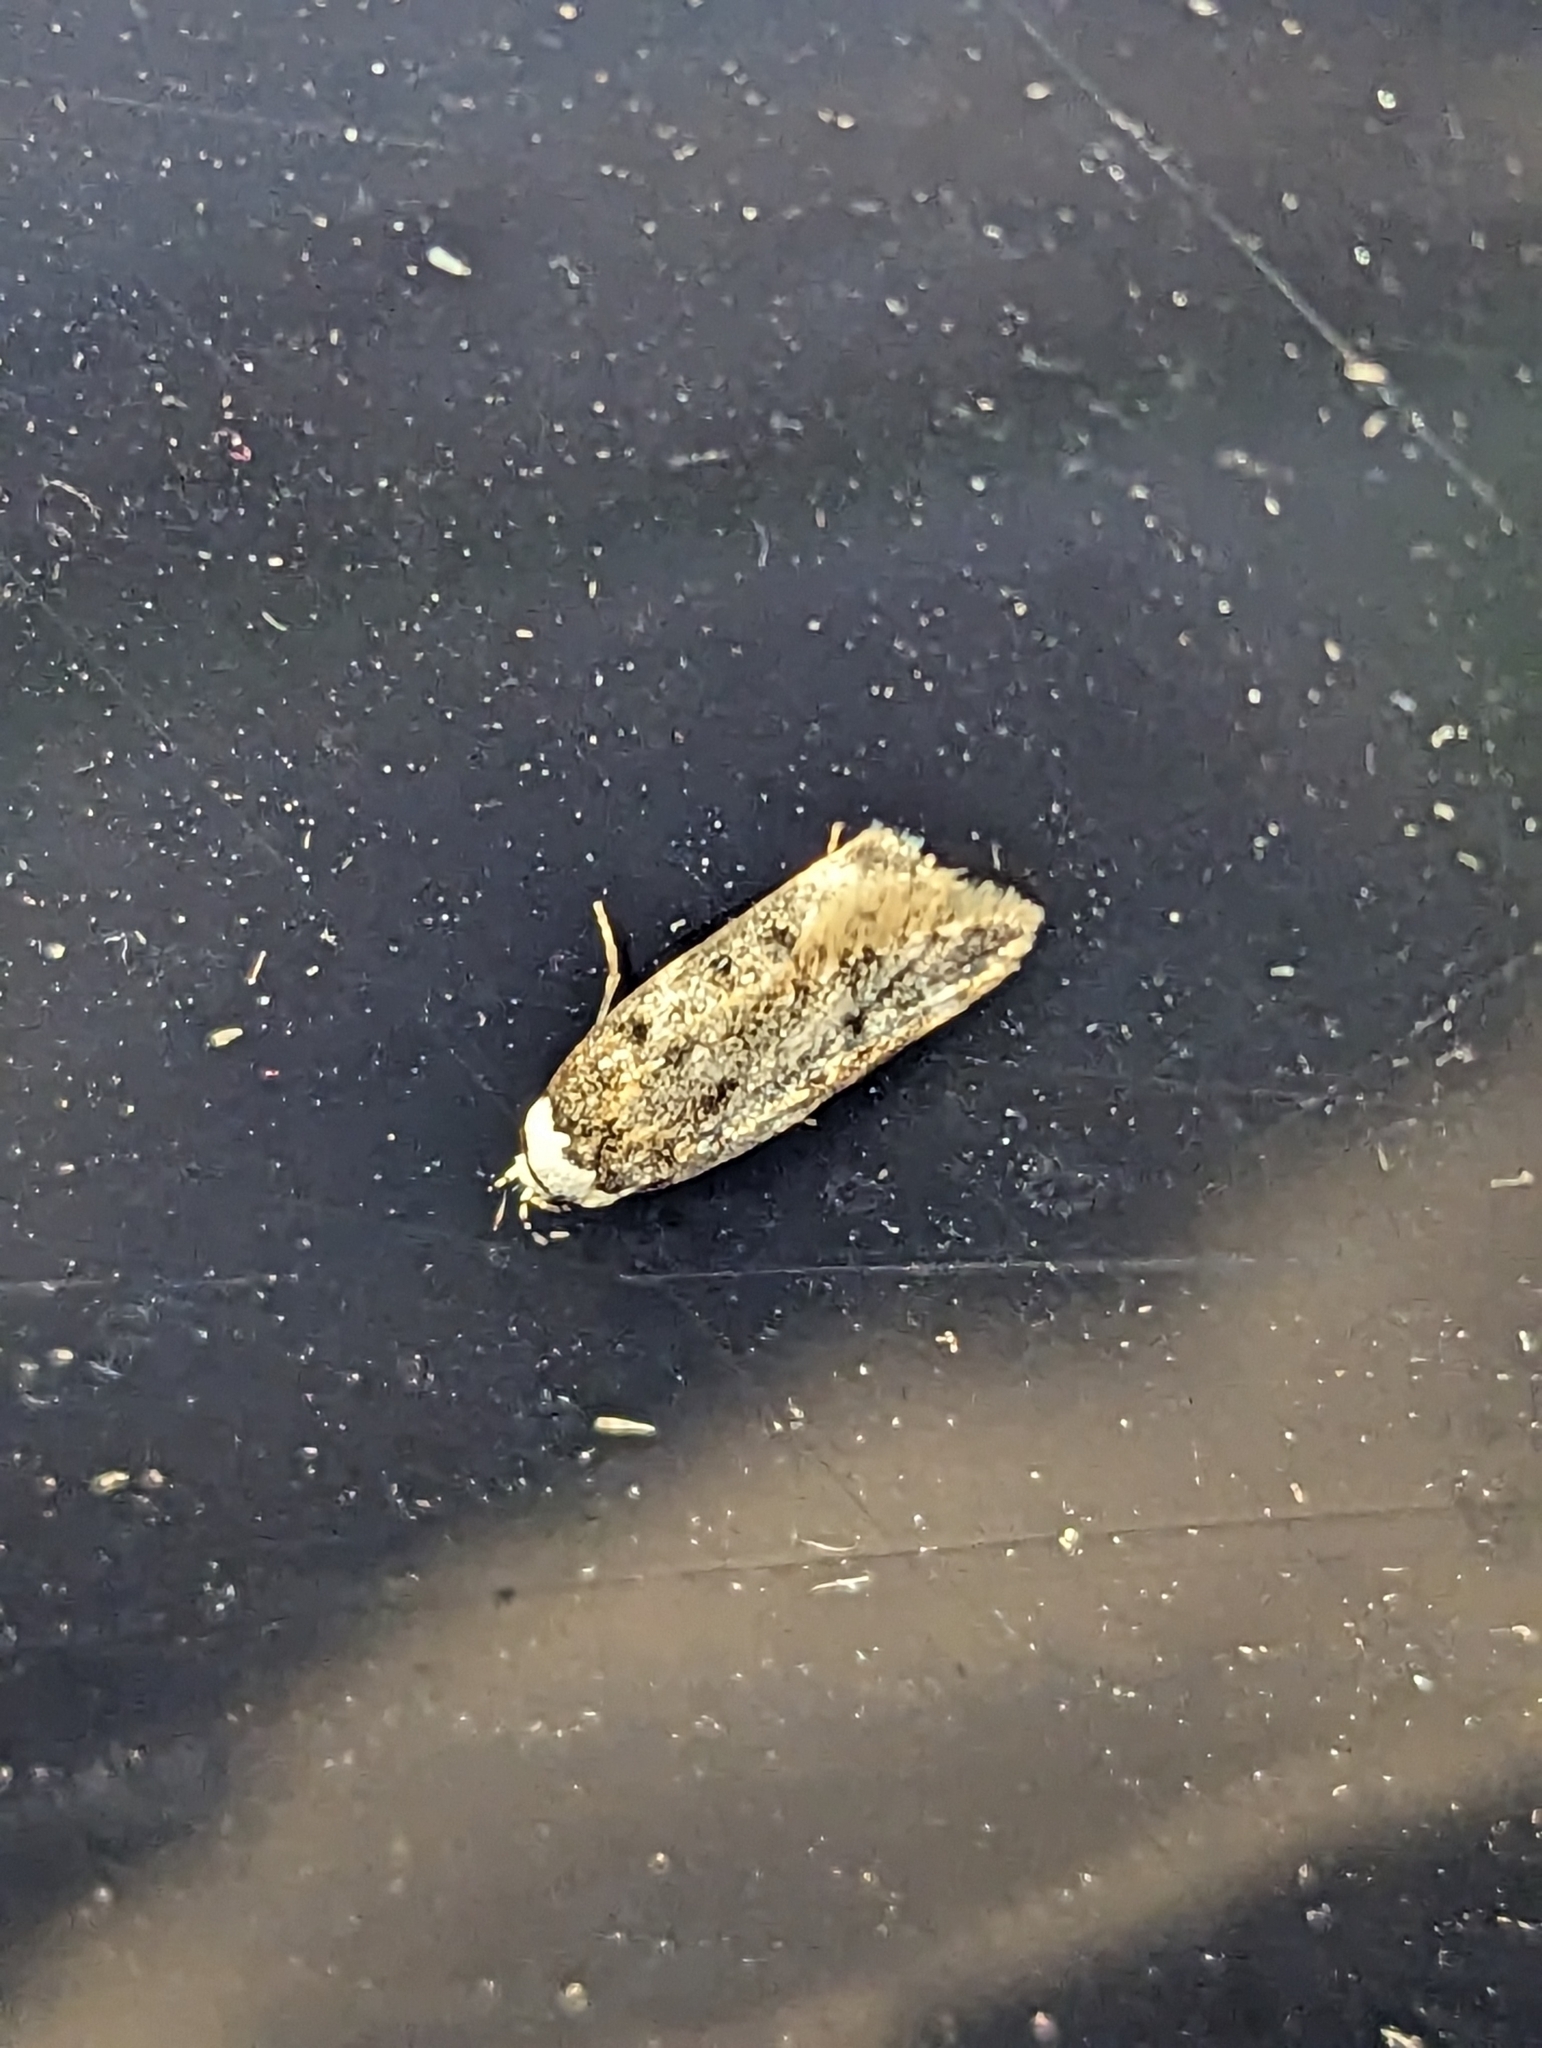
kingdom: Animalia
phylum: Arthropoda
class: Insecta
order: Lepidoptera
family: Oecophoridae
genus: Endrosis
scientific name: Endrosis sarcitrella
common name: White-shouldered house moth
